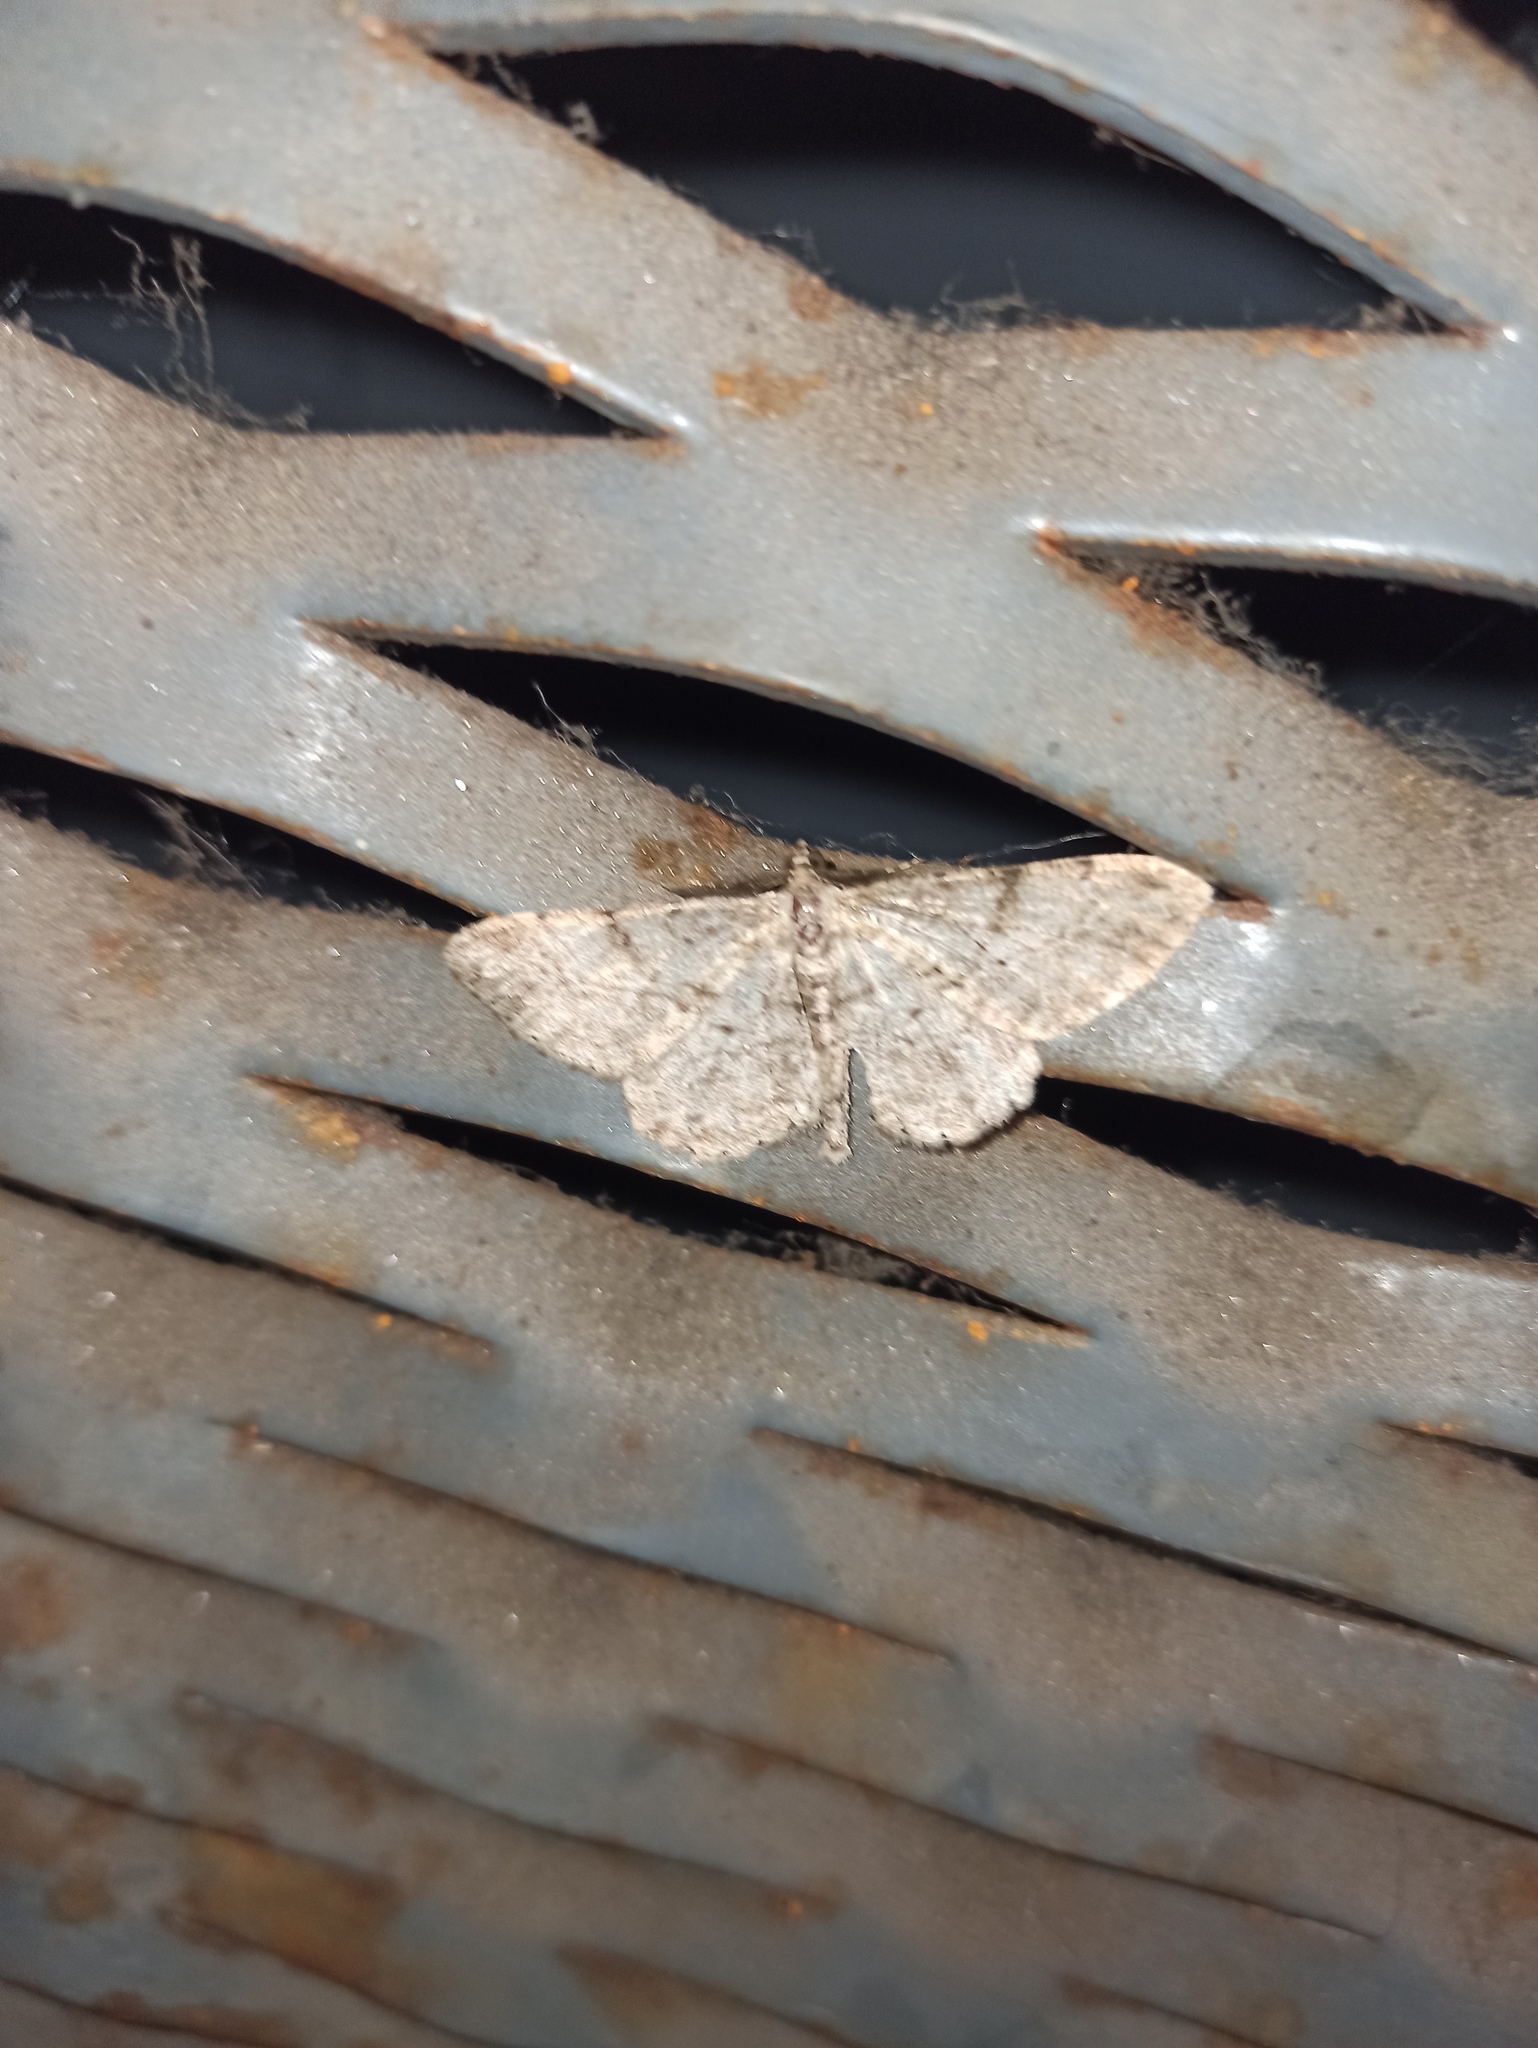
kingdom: Animalia
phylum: Arthropoda
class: Insecta
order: Lepidoptera
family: Geometridae
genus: Peribatodes
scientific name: Peribatodes rhomboidaria
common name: Willow beauty
